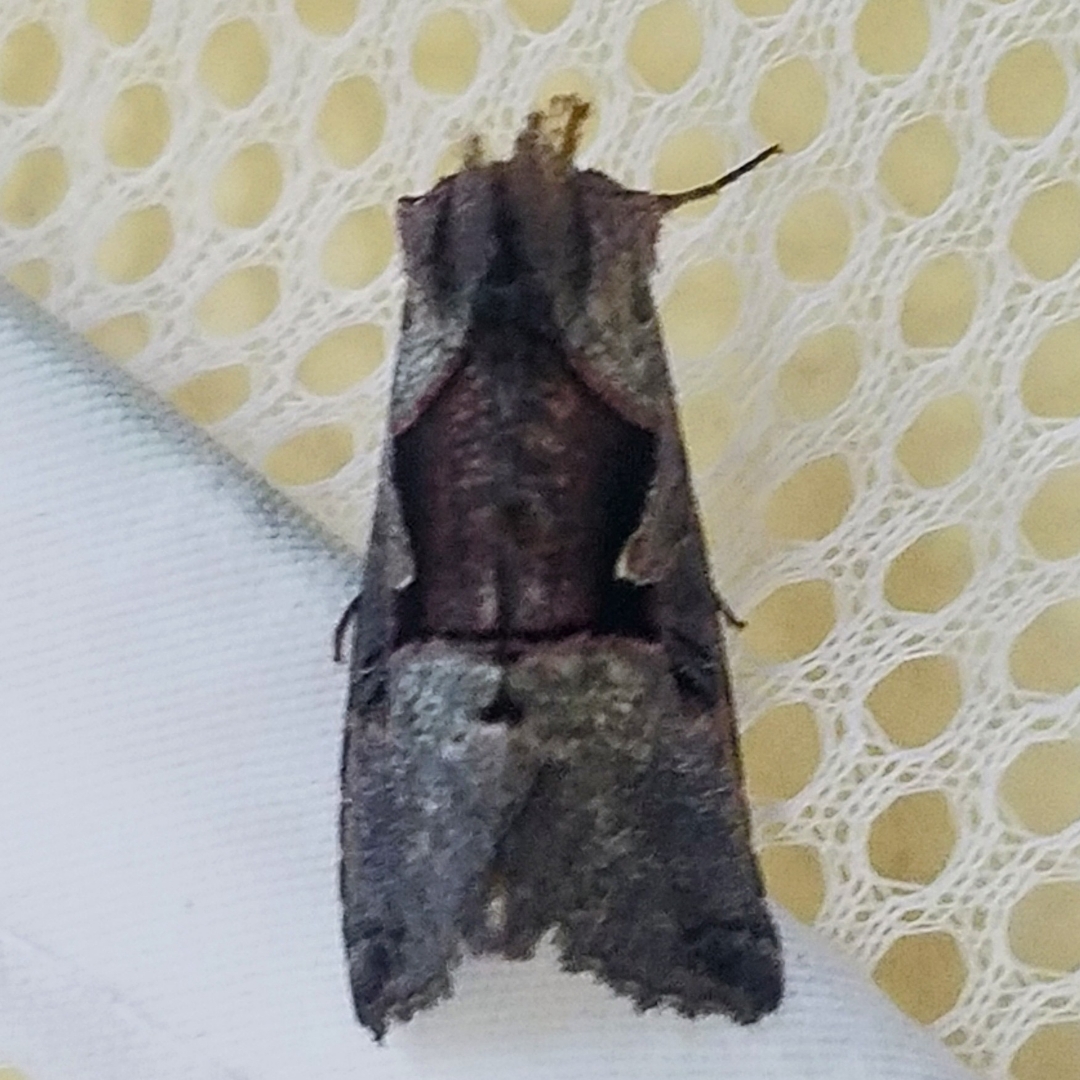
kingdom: Animalia
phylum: Arthropoda
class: Insecta
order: Lepidoptera
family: Noctuidae
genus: Autographa
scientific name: Autographa ampla
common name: Large looper moth
